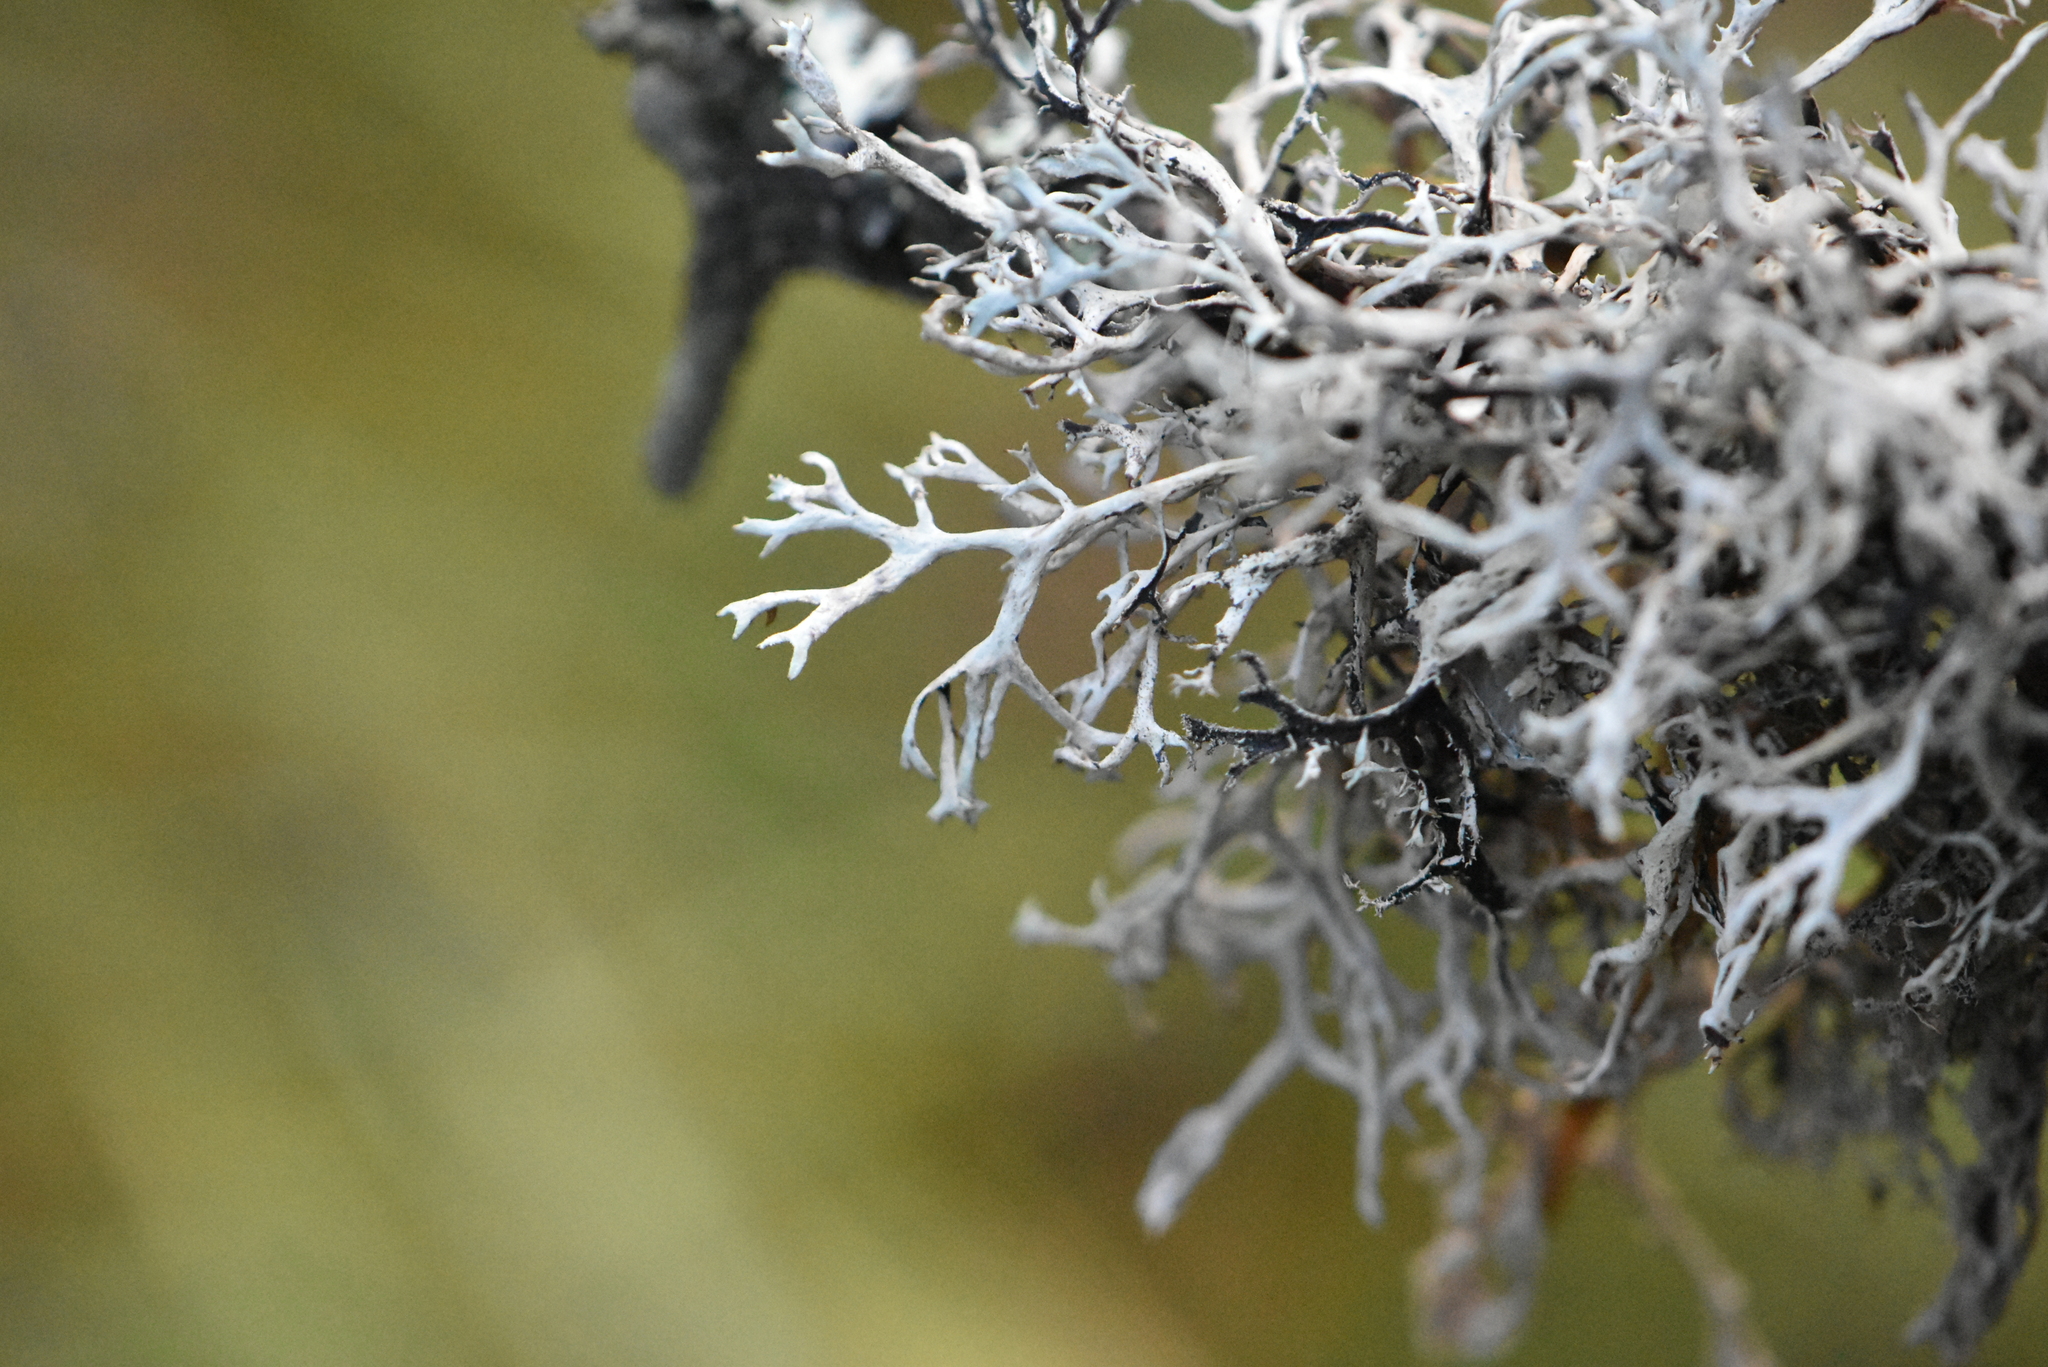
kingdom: Fungi
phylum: Ascomycota
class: Lecanoromycetes
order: Lecanorales
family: Parmeliaceae
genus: Pseudevernia
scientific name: Pseudevernia furfuracea
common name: Tree moss
